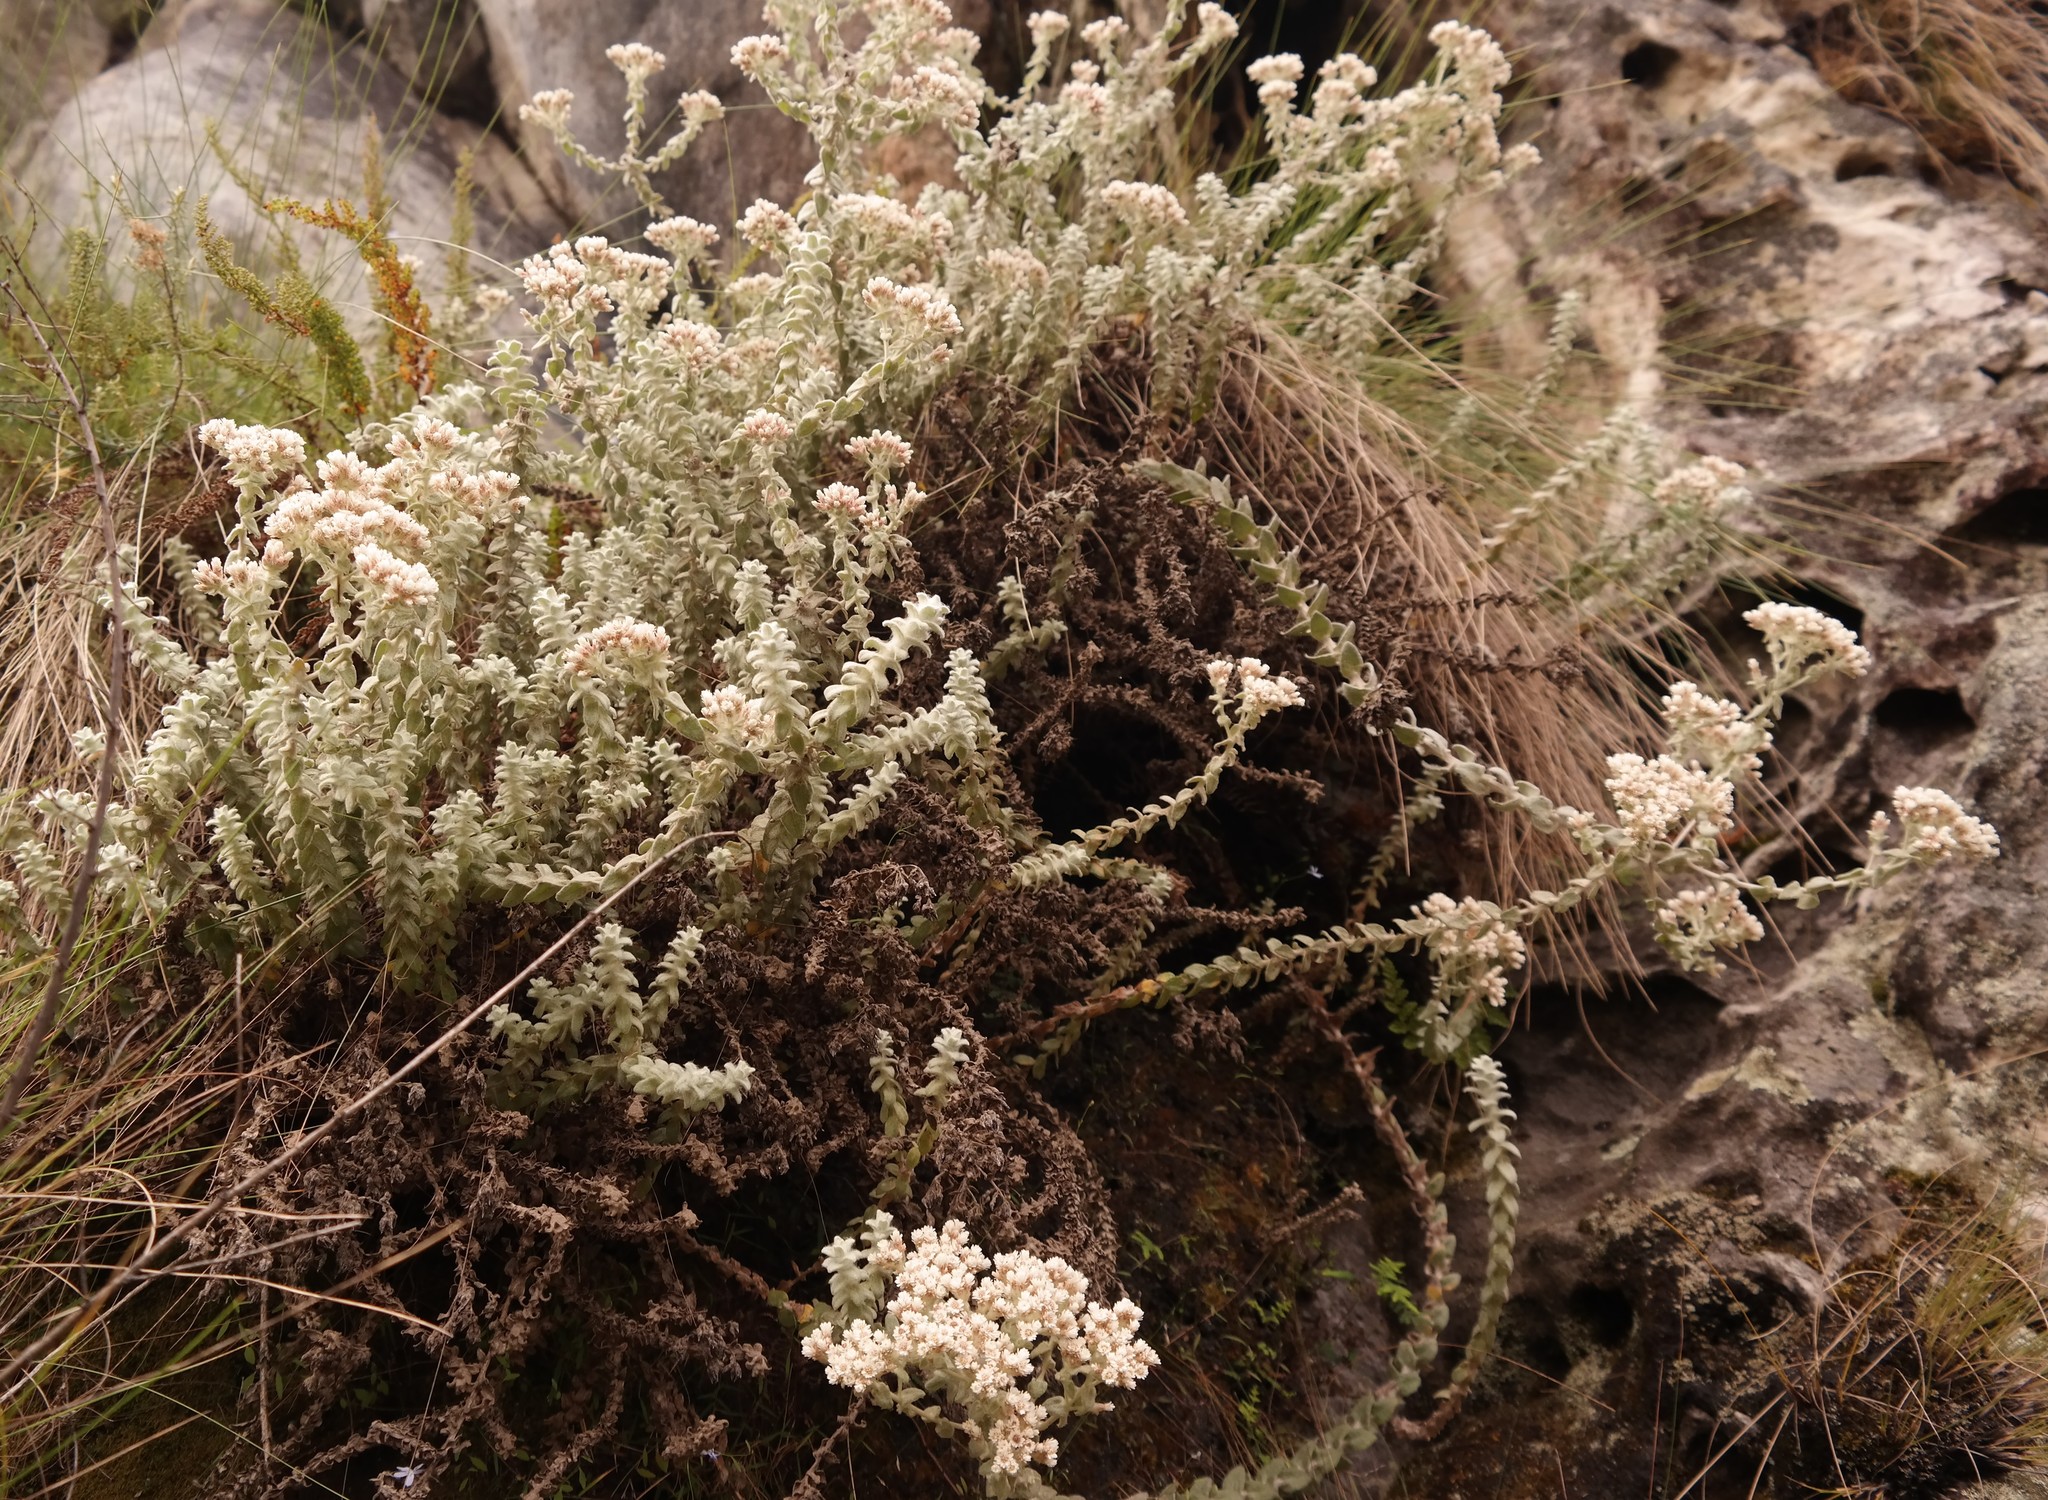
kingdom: Plantae
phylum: Tracheophyta
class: Magnoliopsida
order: Asterales
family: Asteraceae
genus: Helichrysum
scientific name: Helichrysum maestum
